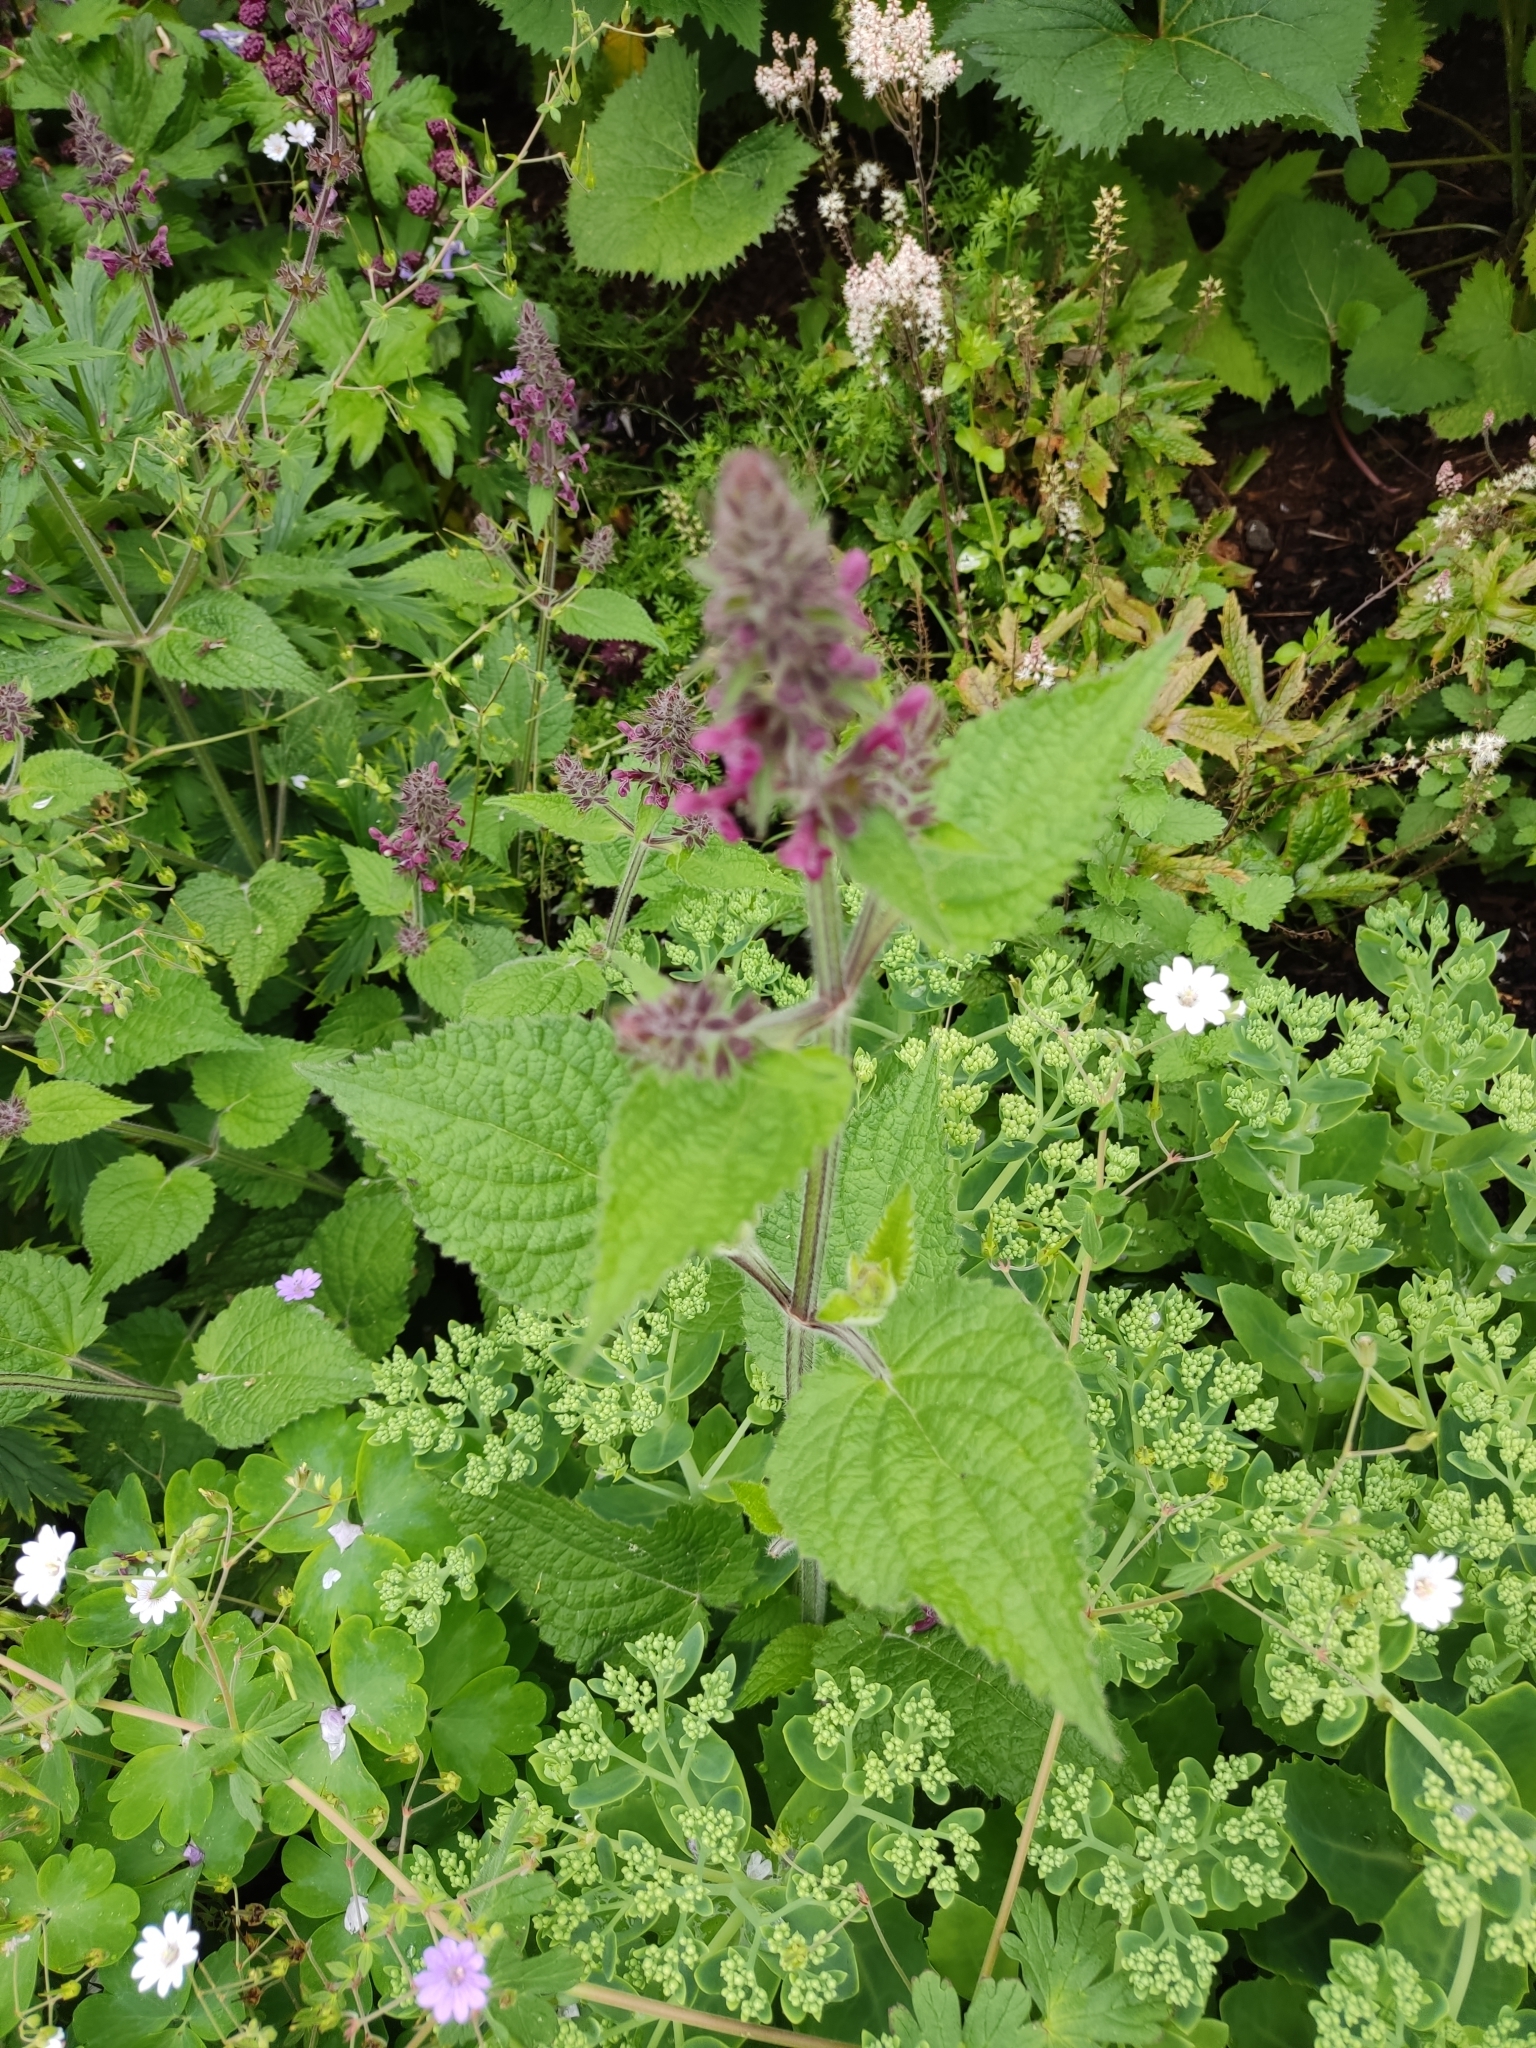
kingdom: Plantae
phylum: Tracheophyta
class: Magnoliopsida
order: Lamiales
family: Lamiaceae
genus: Stachys
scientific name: Stachys sylvatica
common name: Hedge woundwort
